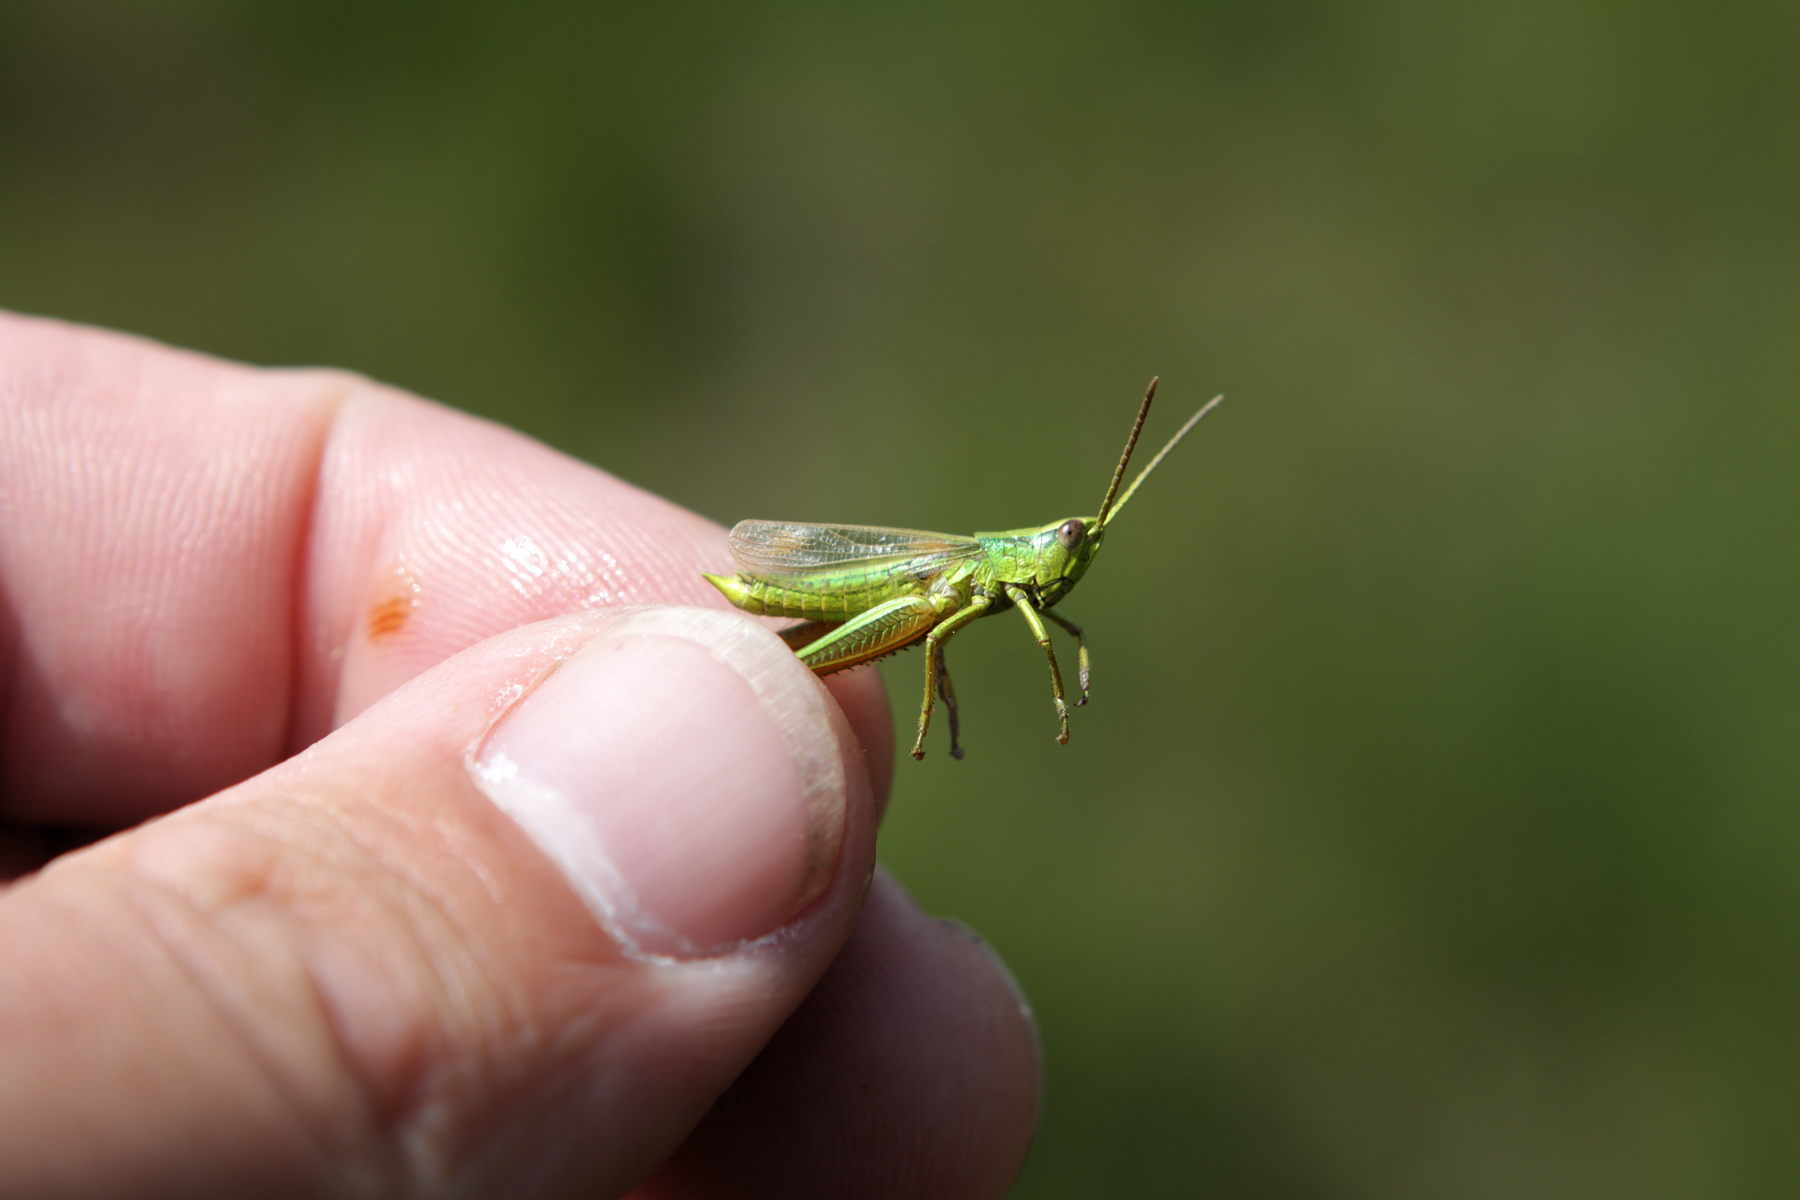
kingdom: Animalia
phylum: Arthropoda
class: Insecta
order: Orthoptera
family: Acrididae
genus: Chrysochraon
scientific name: Chrysochraon dispar
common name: Large gold grasshopper
